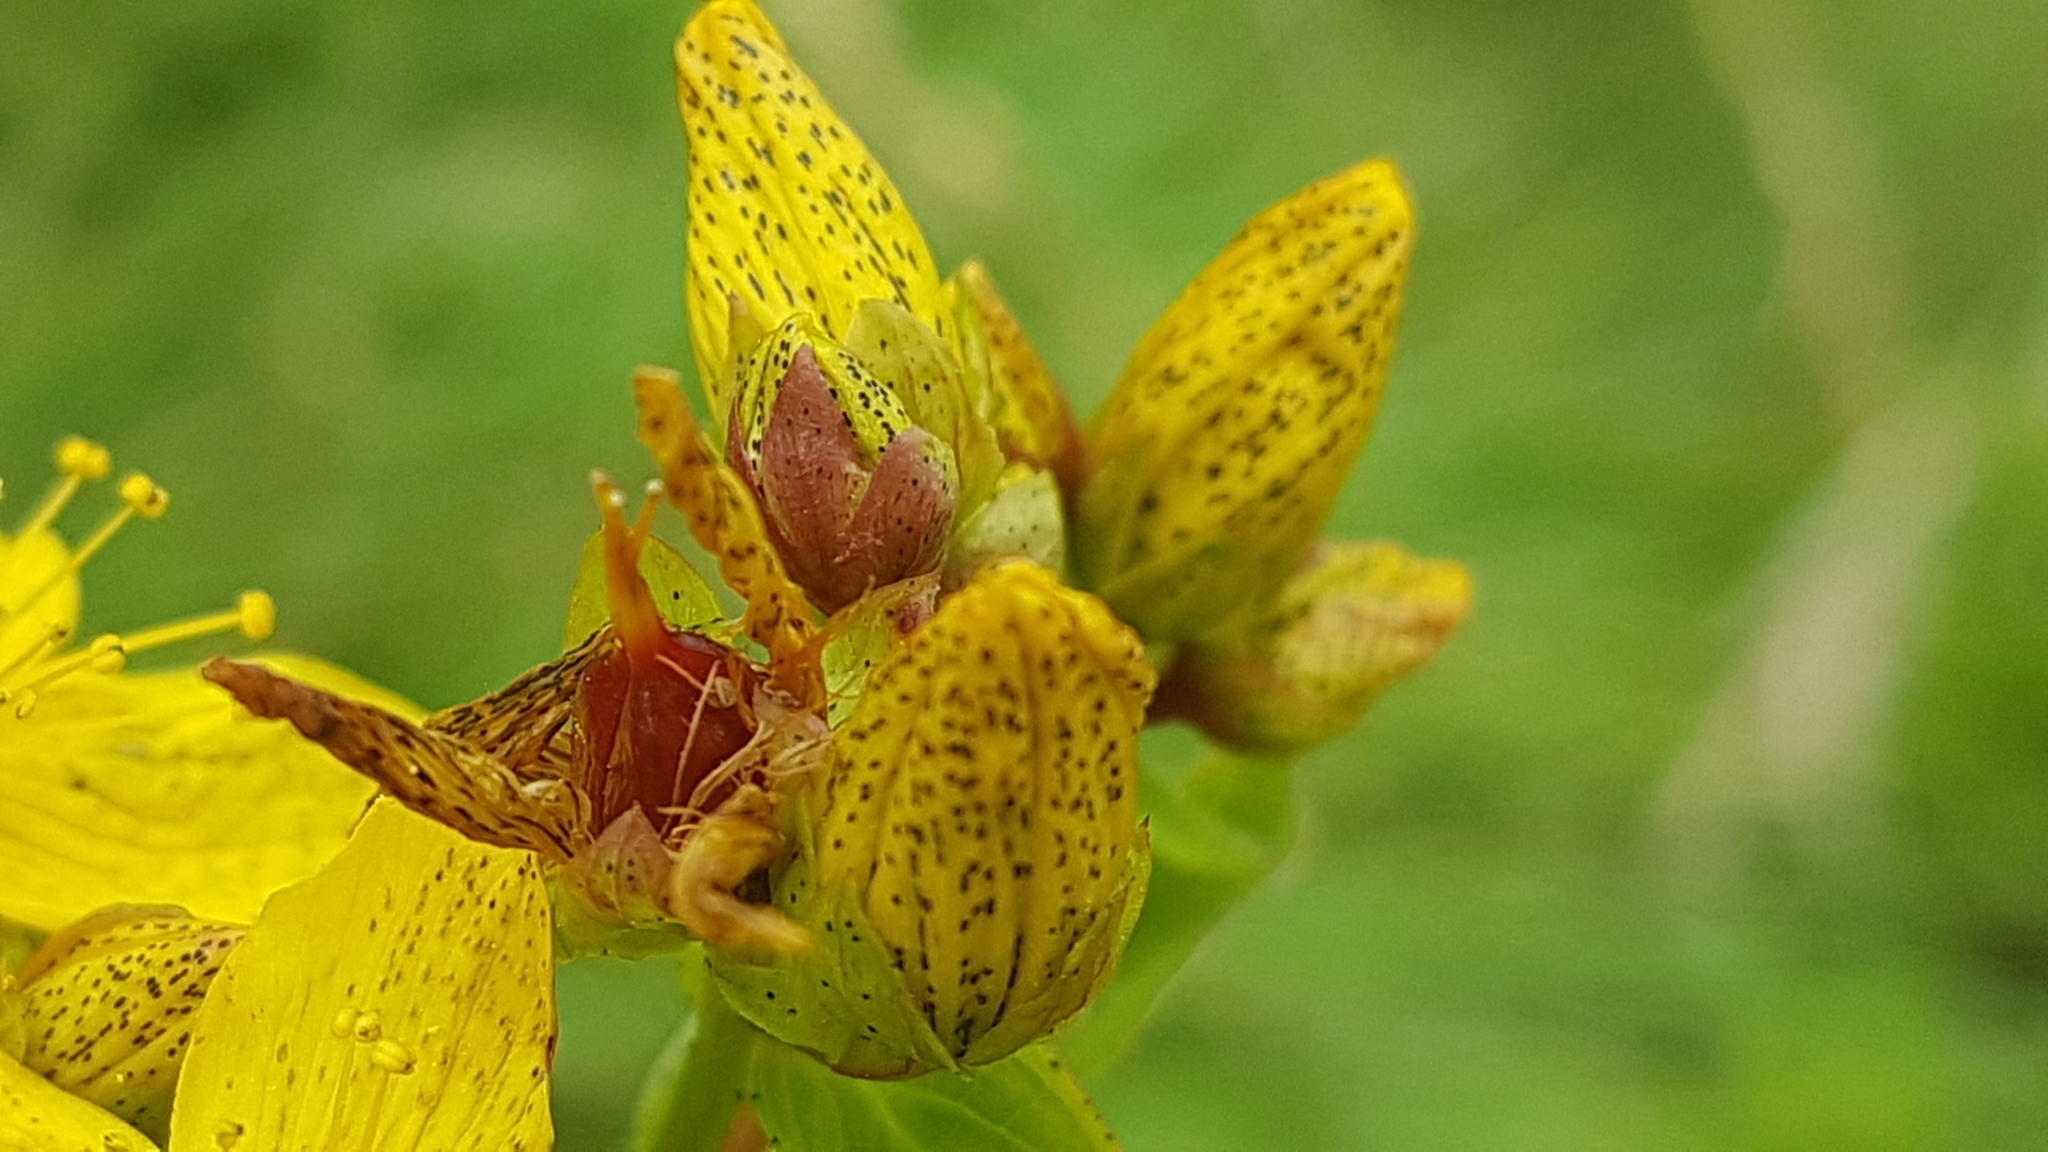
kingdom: Plantae
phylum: Tracheophyta
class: Magnoliopsida
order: Malpighiales
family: Hypericaceae
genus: Hypericum
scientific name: Hypericum maculatum
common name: Imperforate st. john's-wort
